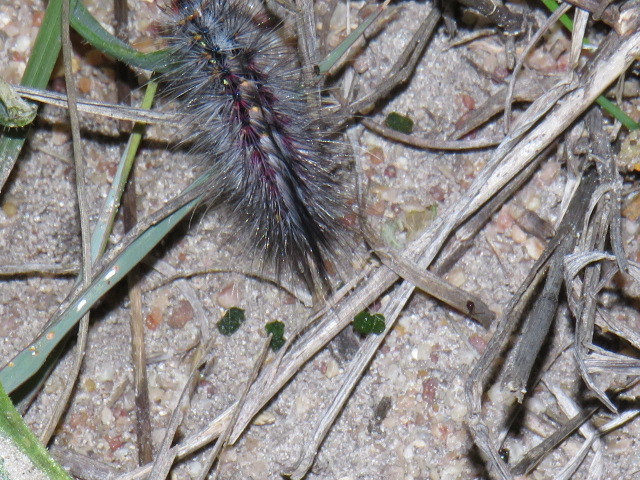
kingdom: Animalia
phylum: Arthropoda
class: Insecta
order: Lepidoptera
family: Erebidae
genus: Paralacydes
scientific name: Paralacydes vocula
